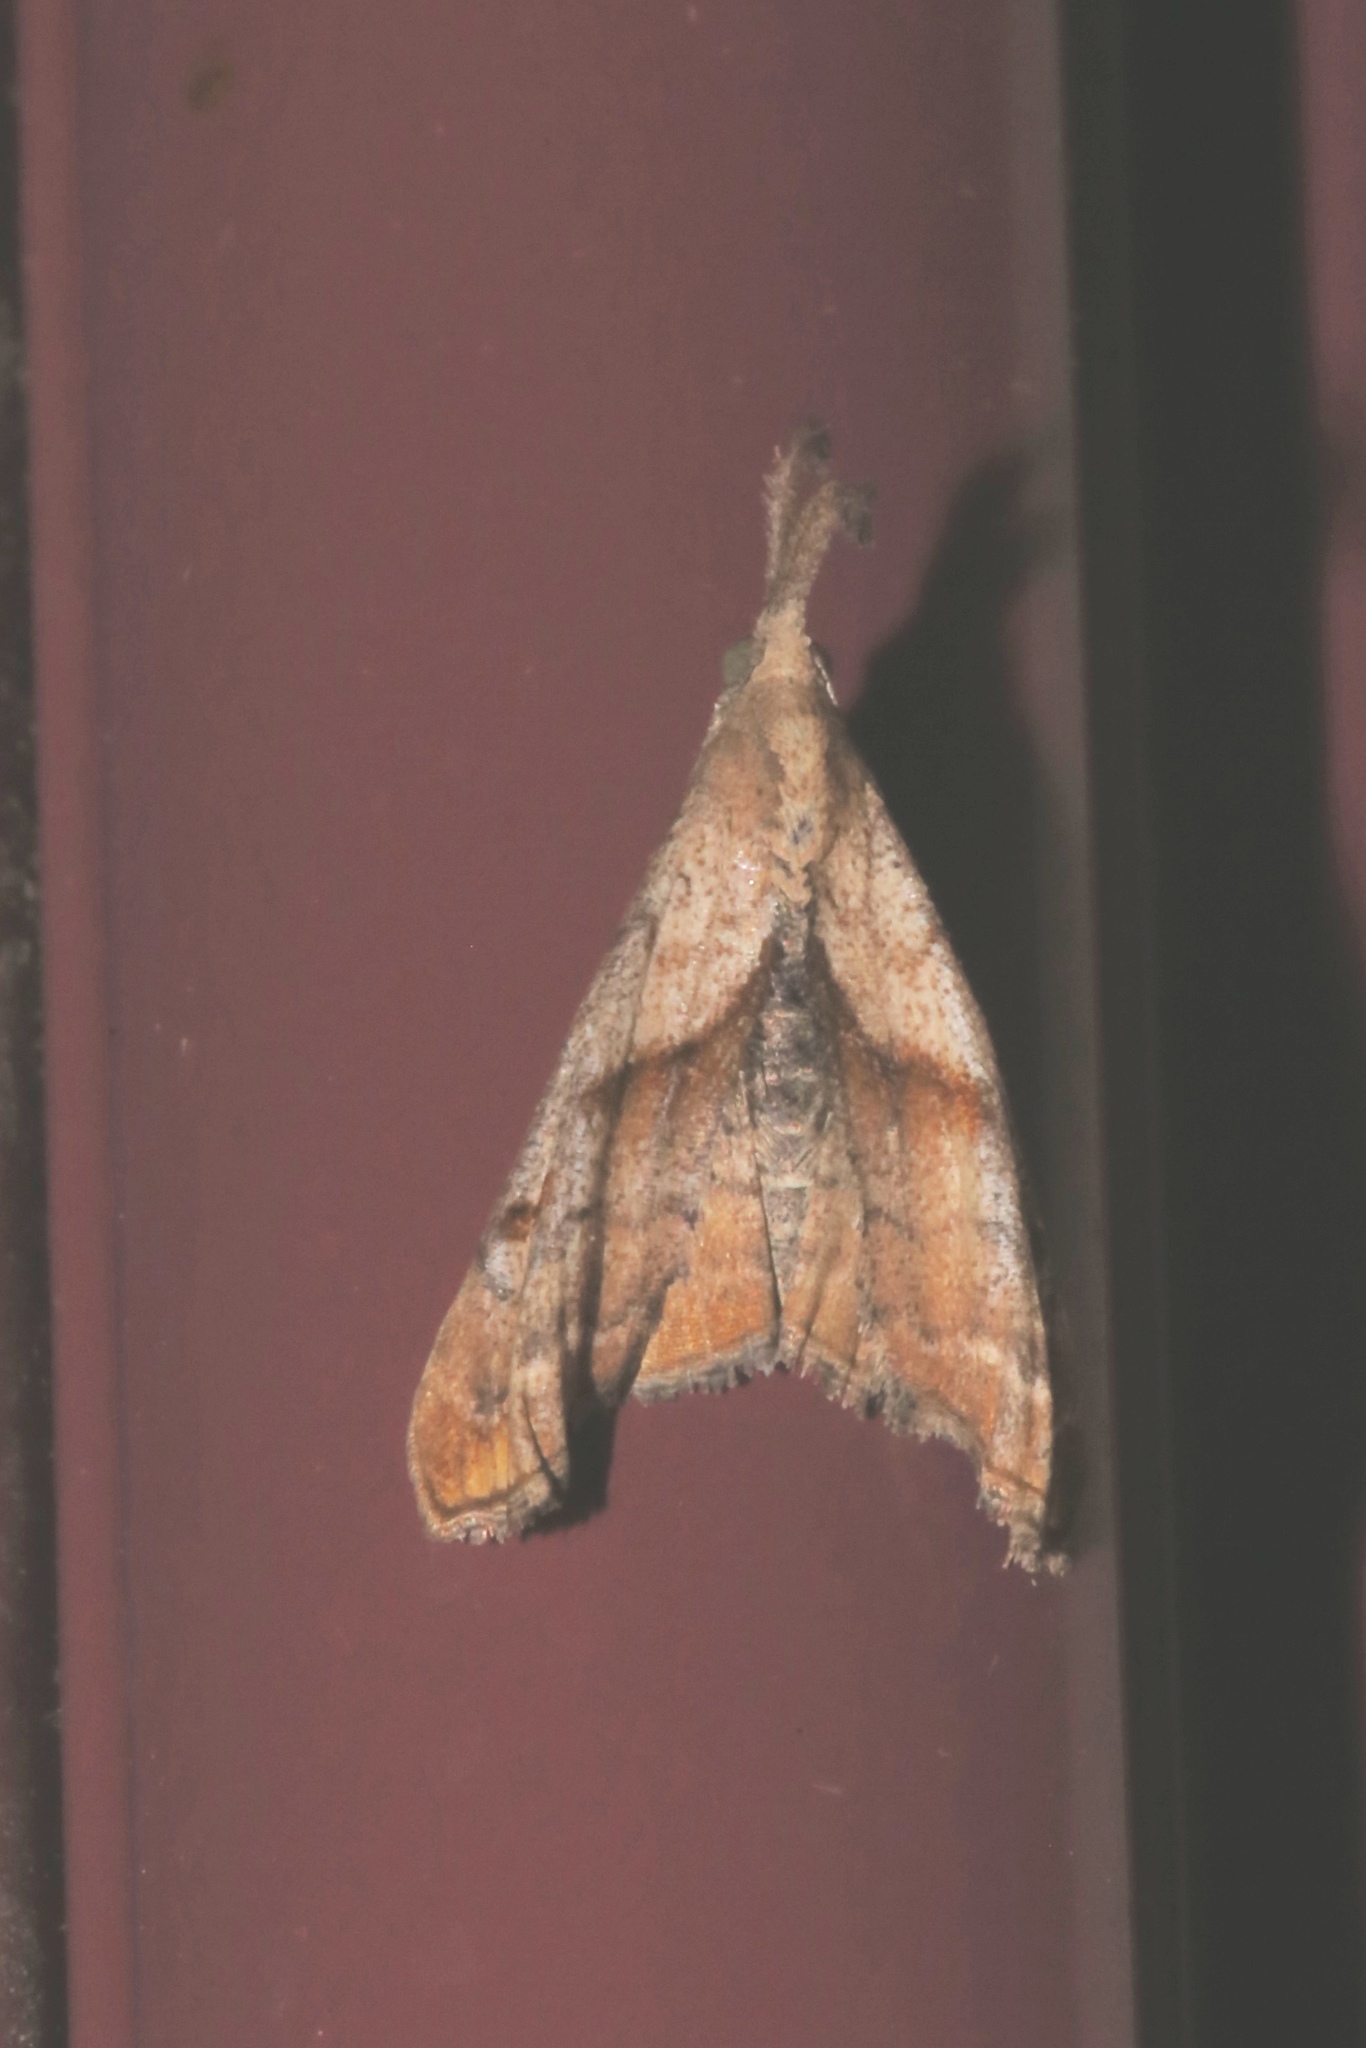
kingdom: Animalia
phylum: Arthropoda
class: Insecta
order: Lepidoptera
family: Erebidae
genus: Palthis
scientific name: Palthis angulalis
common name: Dark-spotted palthis moth
